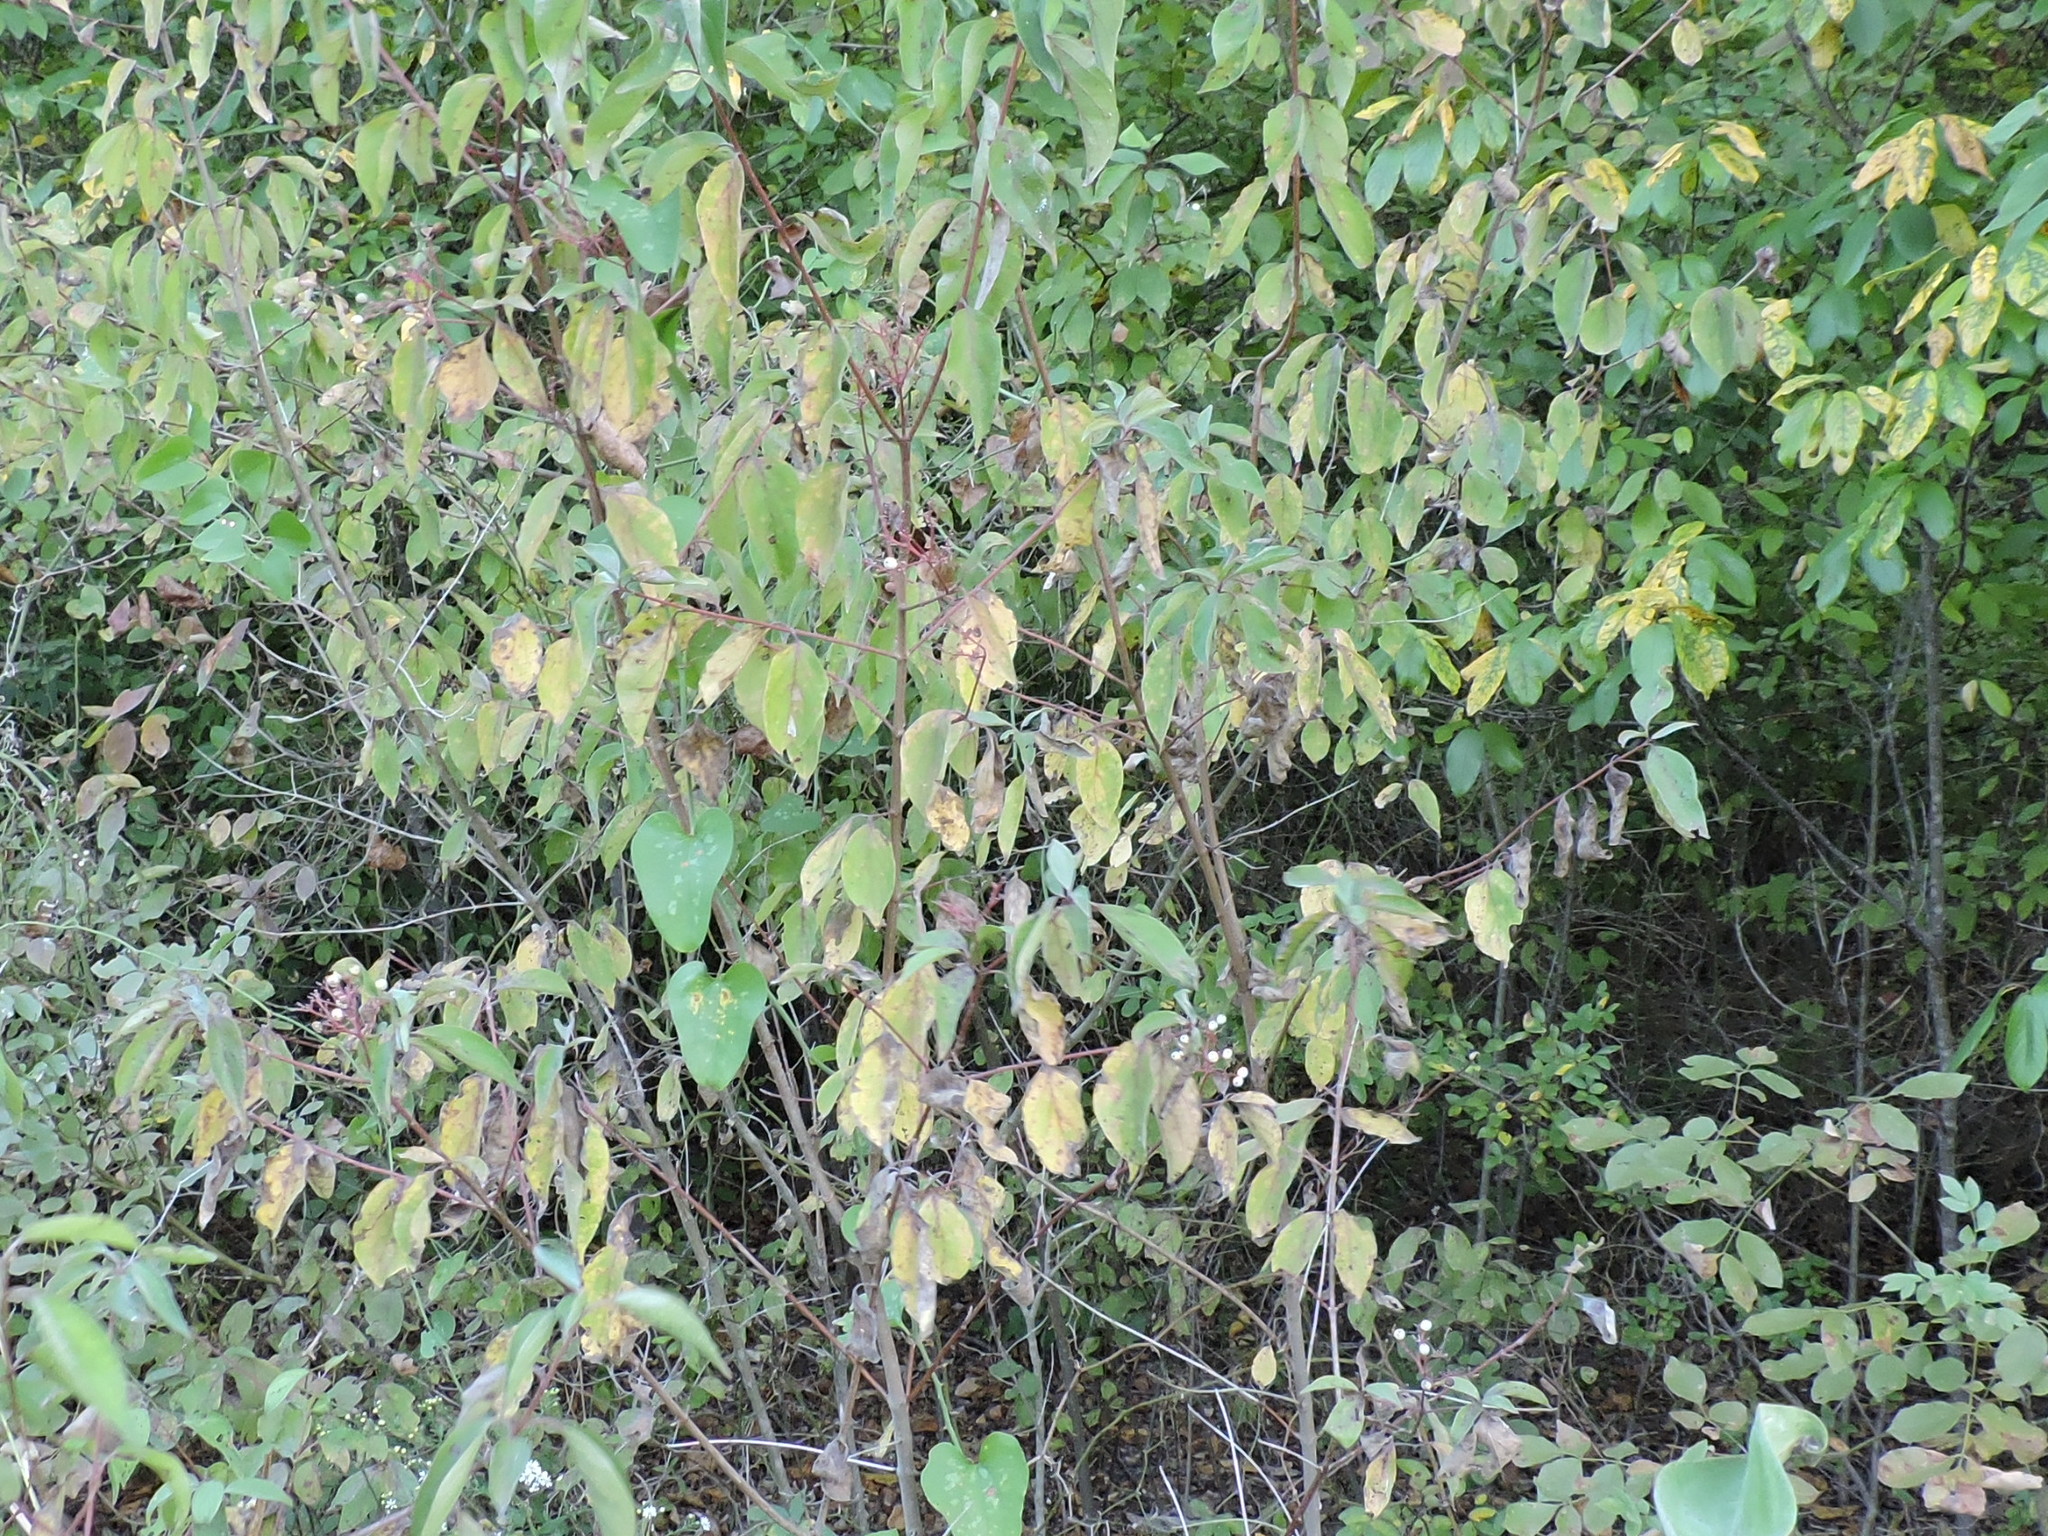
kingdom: Plantae
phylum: Tracheophyta
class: Magnoliopsida
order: Cornales
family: Cornaceae
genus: Cornus
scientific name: Cornus drummondii
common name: Rough-leaf dogwood
